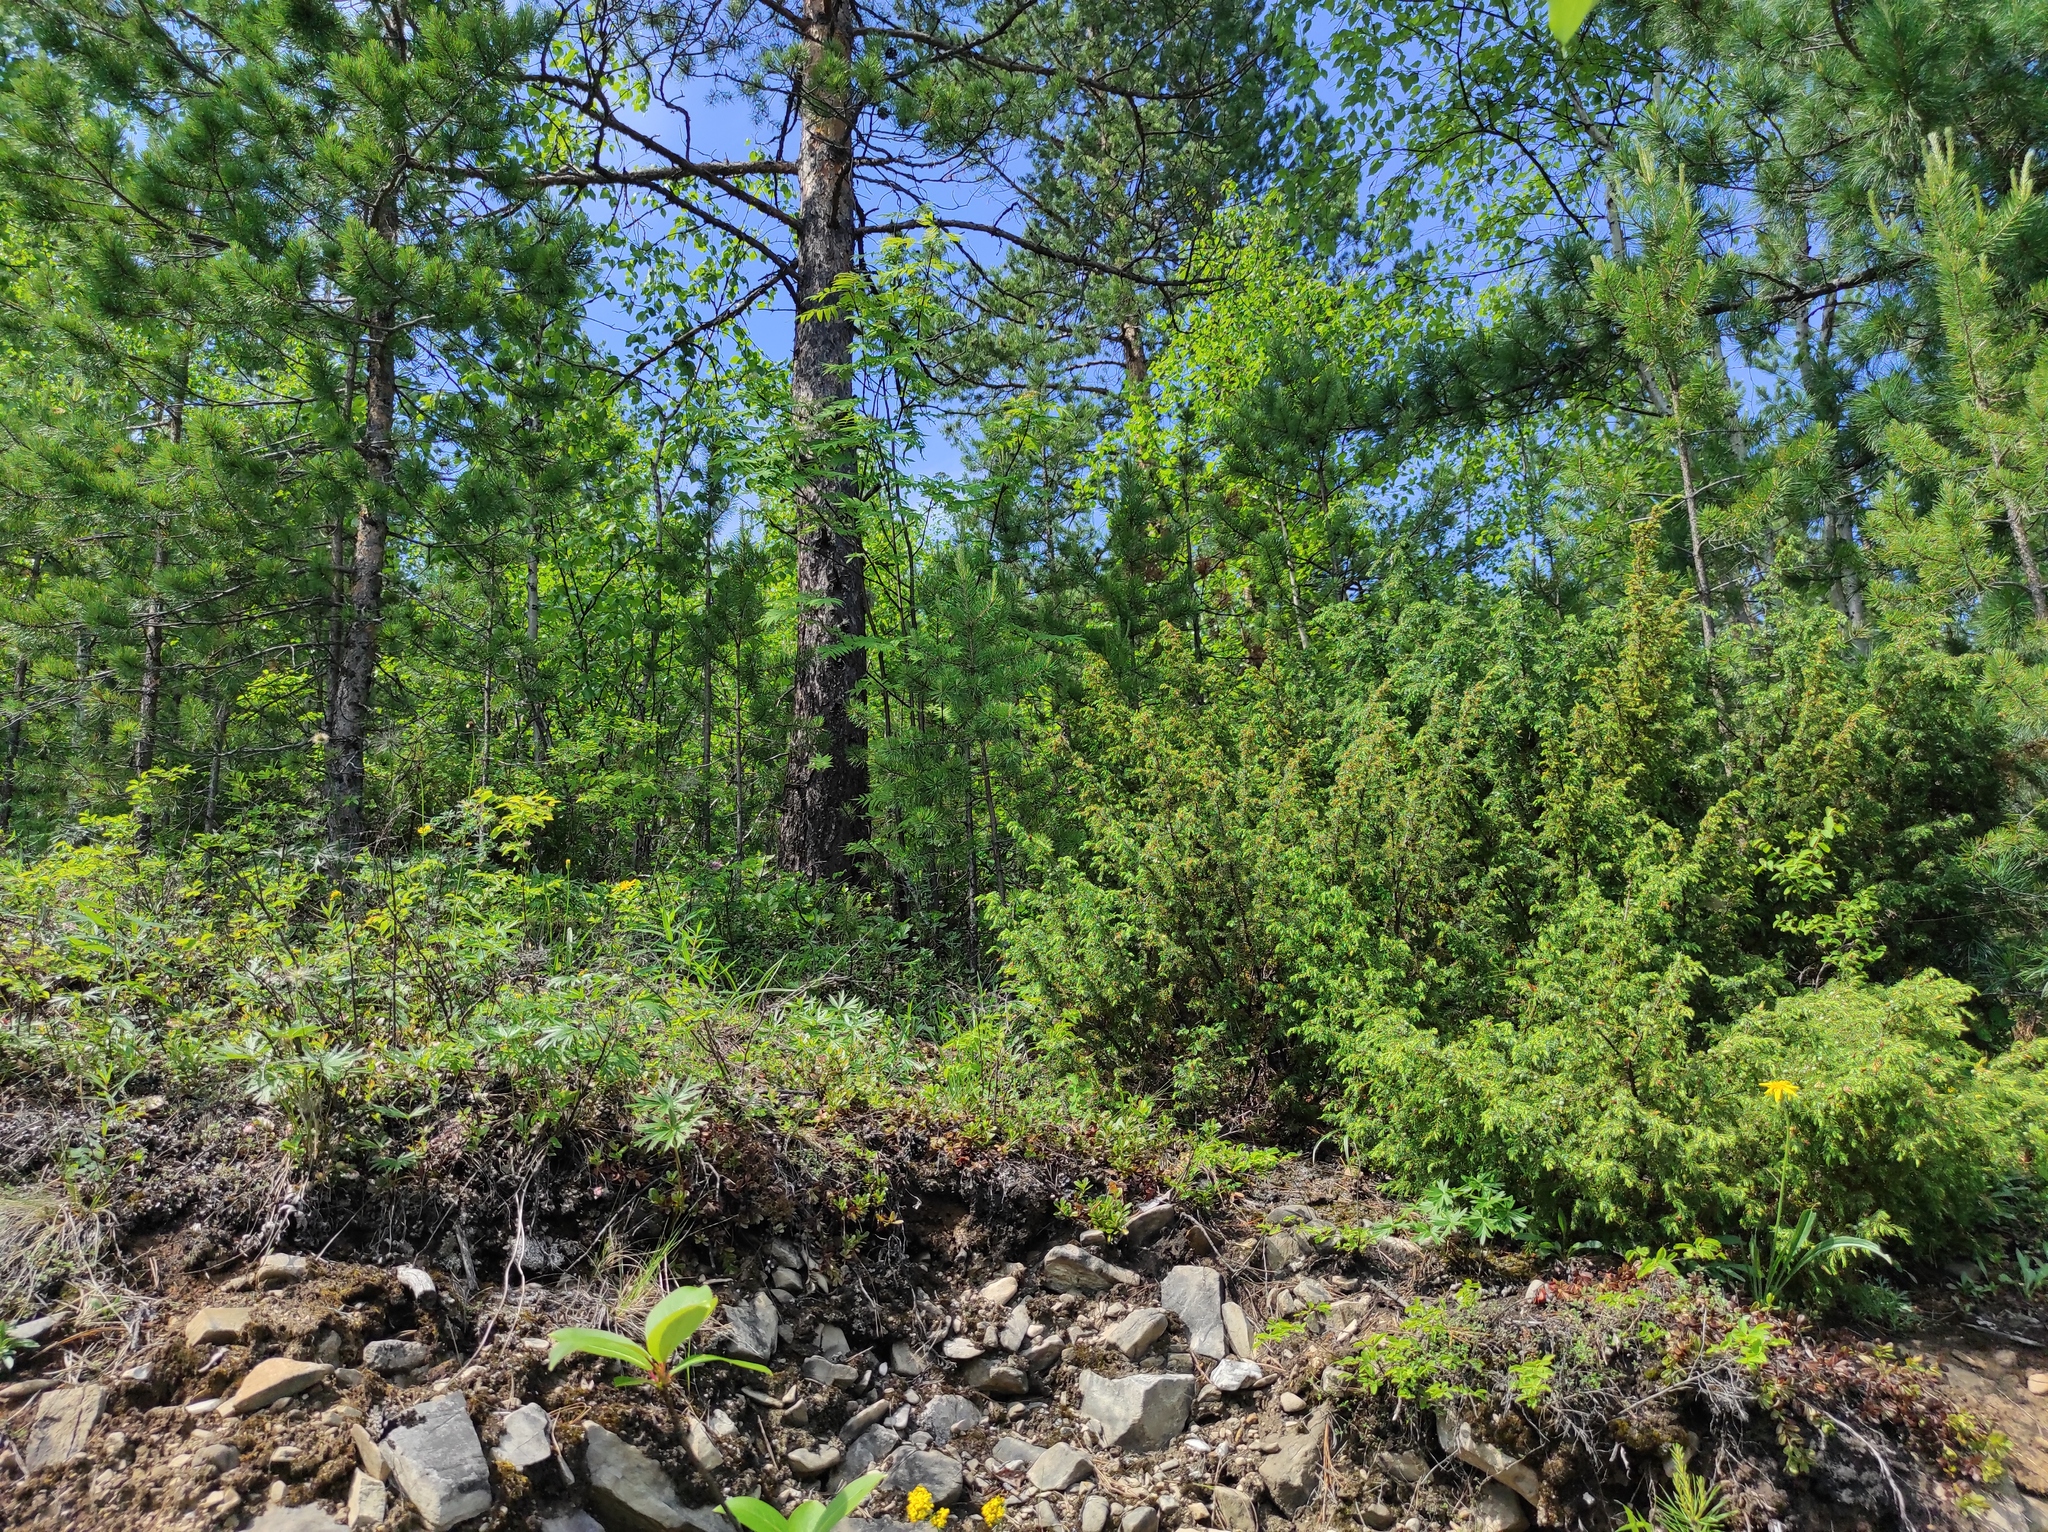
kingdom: Plantae
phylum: Tracheophyta
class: Pinopsida
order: Pinales
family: Cupressaceae
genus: Juniperus
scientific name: Juniperus communis
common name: Common juniper
